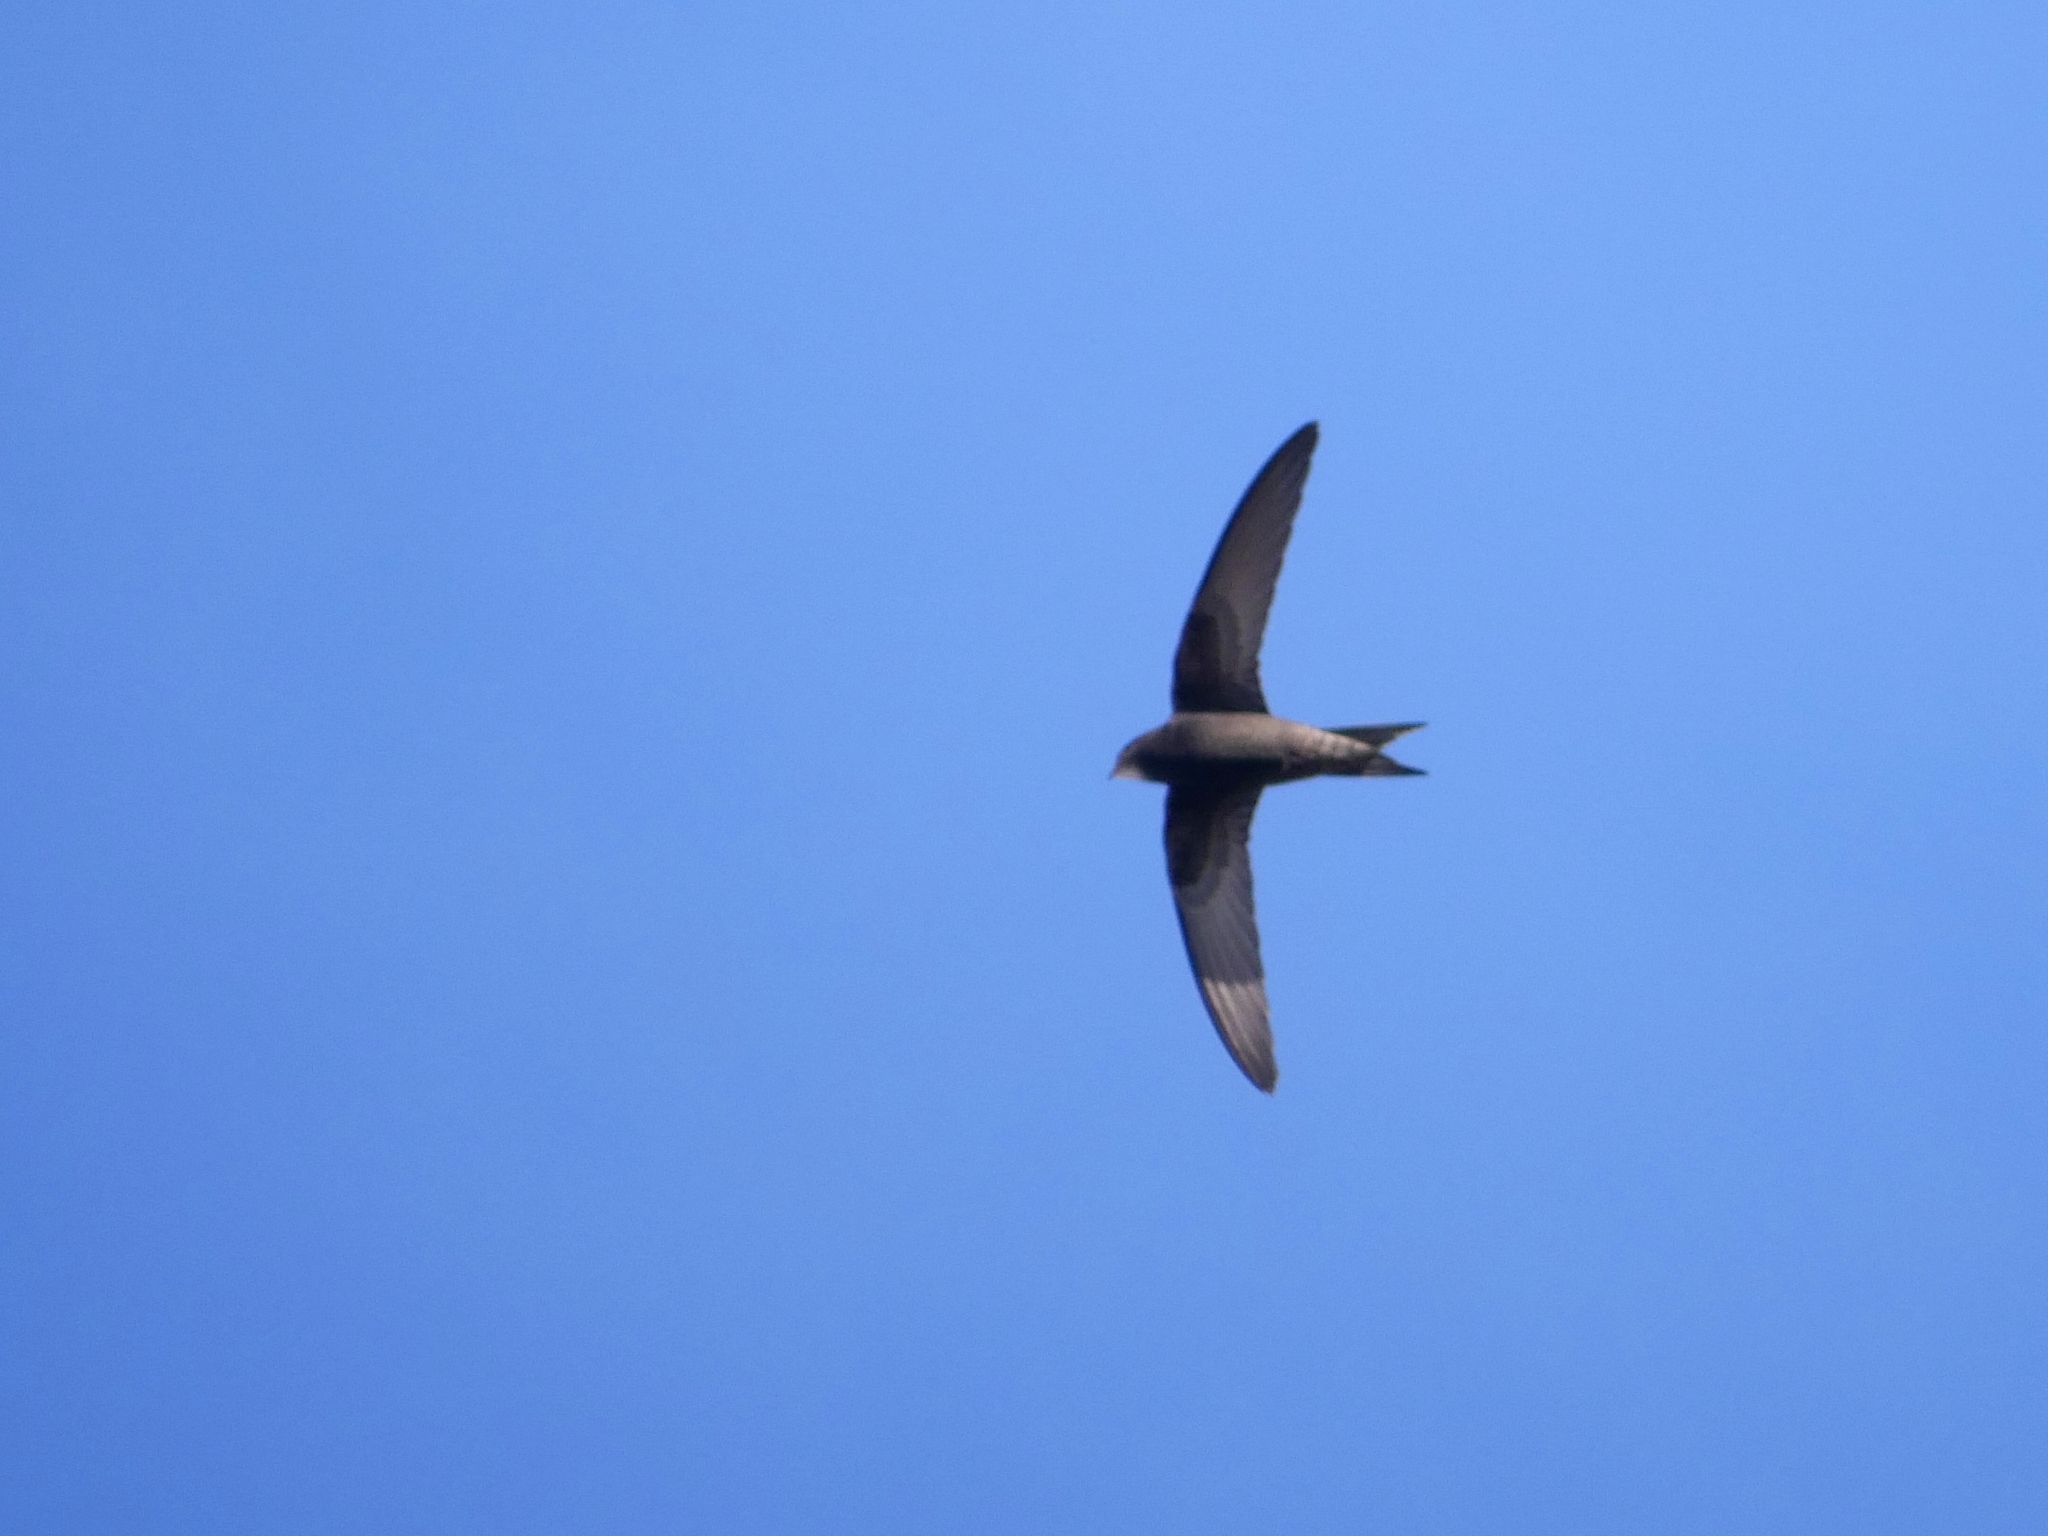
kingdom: Animalia
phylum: Chordata
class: Aves
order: Apodiformes
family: Apodidae
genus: Apus
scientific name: Apus apus
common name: Common swift
